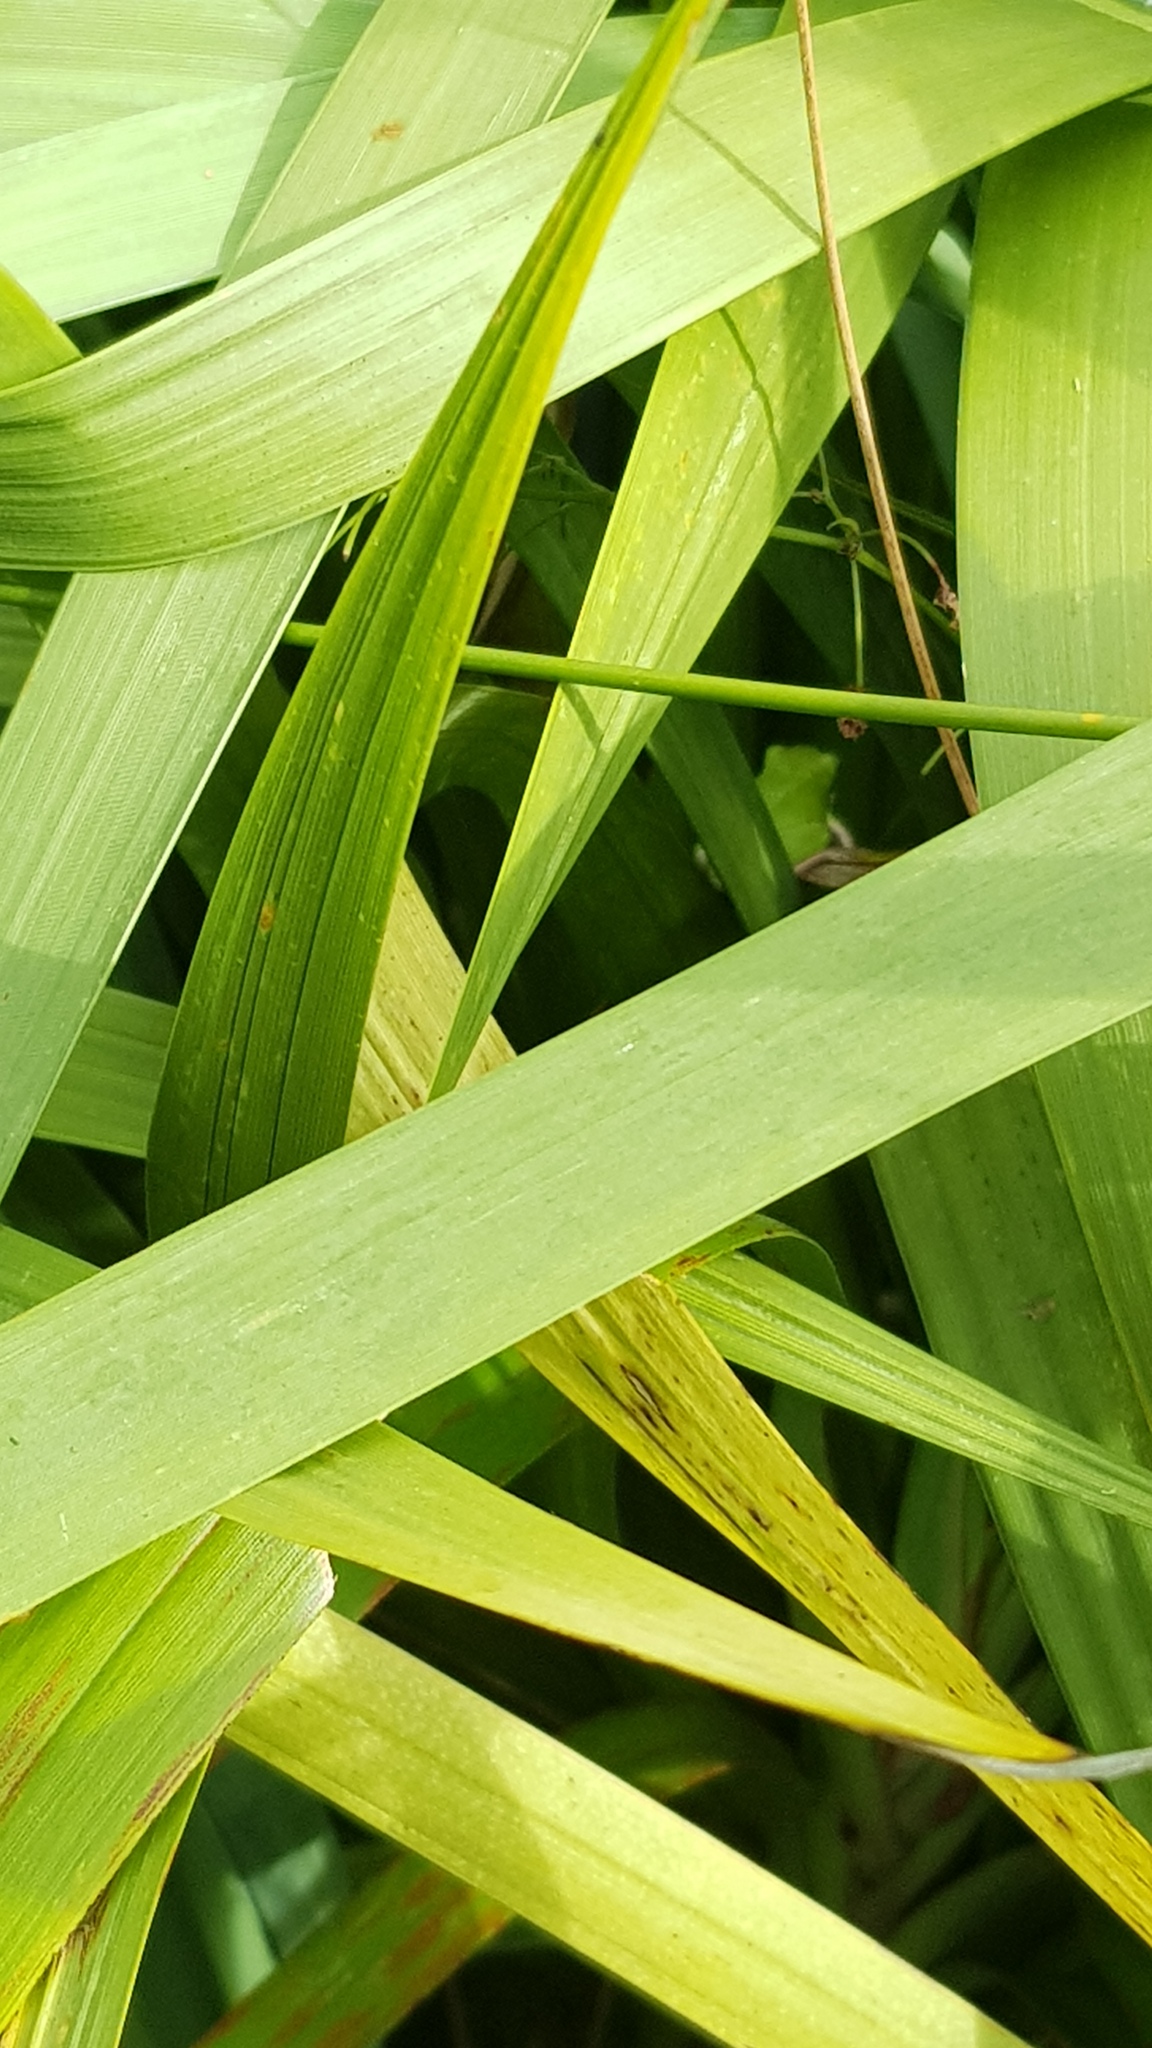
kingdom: Animalia
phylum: Chordata
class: Amphibia
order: Anura
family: Pelodryadidae
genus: Litoria
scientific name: Litoria fallax
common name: Eastern dwarf treefrog
